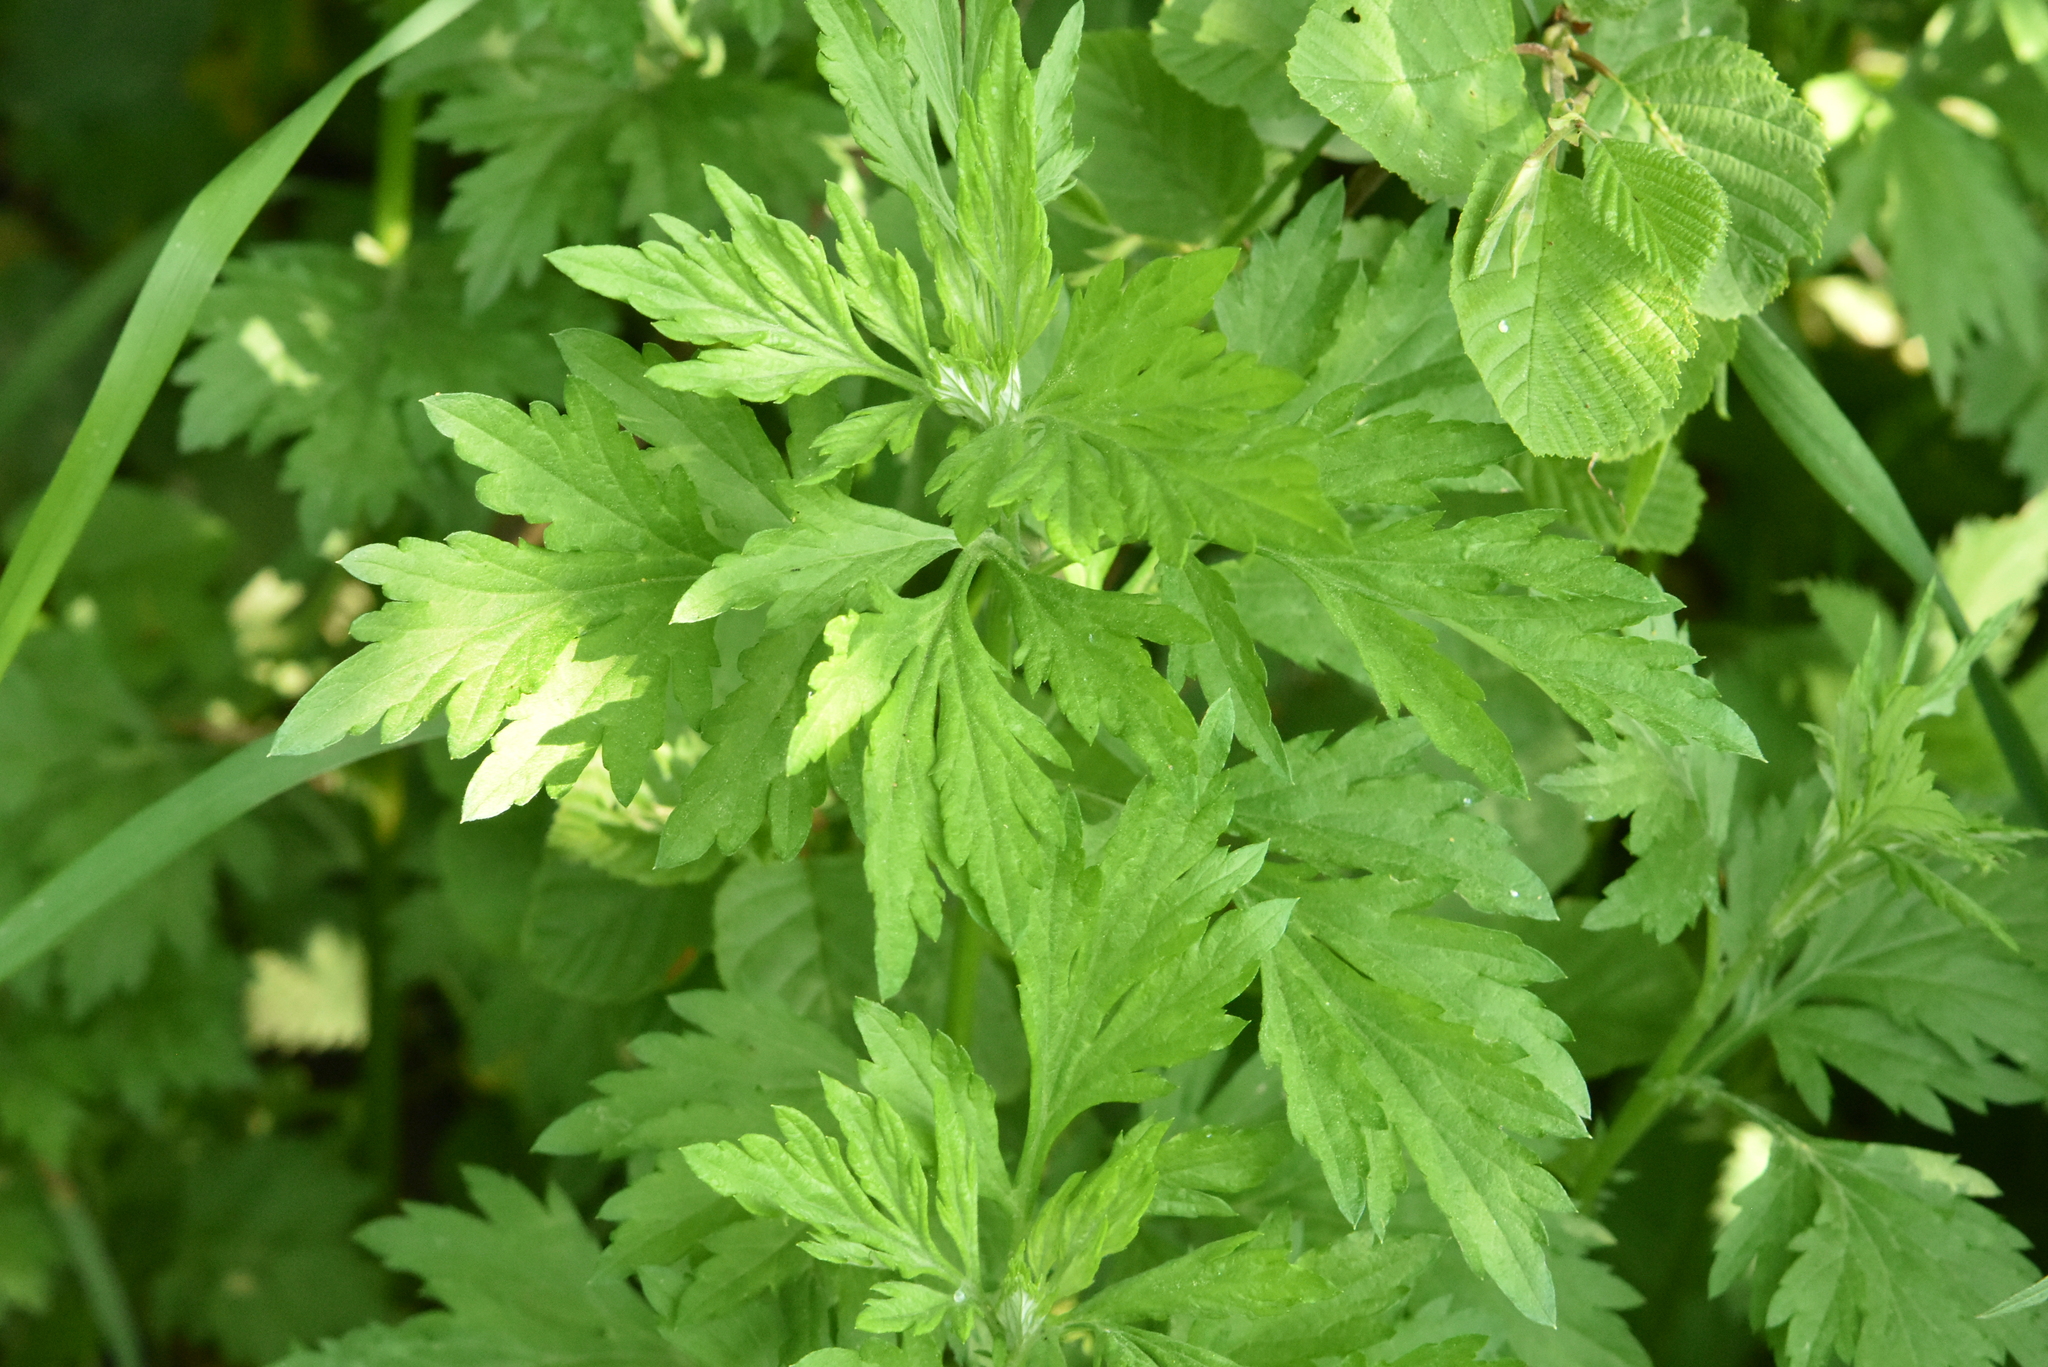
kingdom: Plantae
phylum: Tracheophyta
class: Magnoliopsida
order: Asterales
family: Asteraceae
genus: Artemisia
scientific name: Artemisia vulgaris
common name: Mugwort
